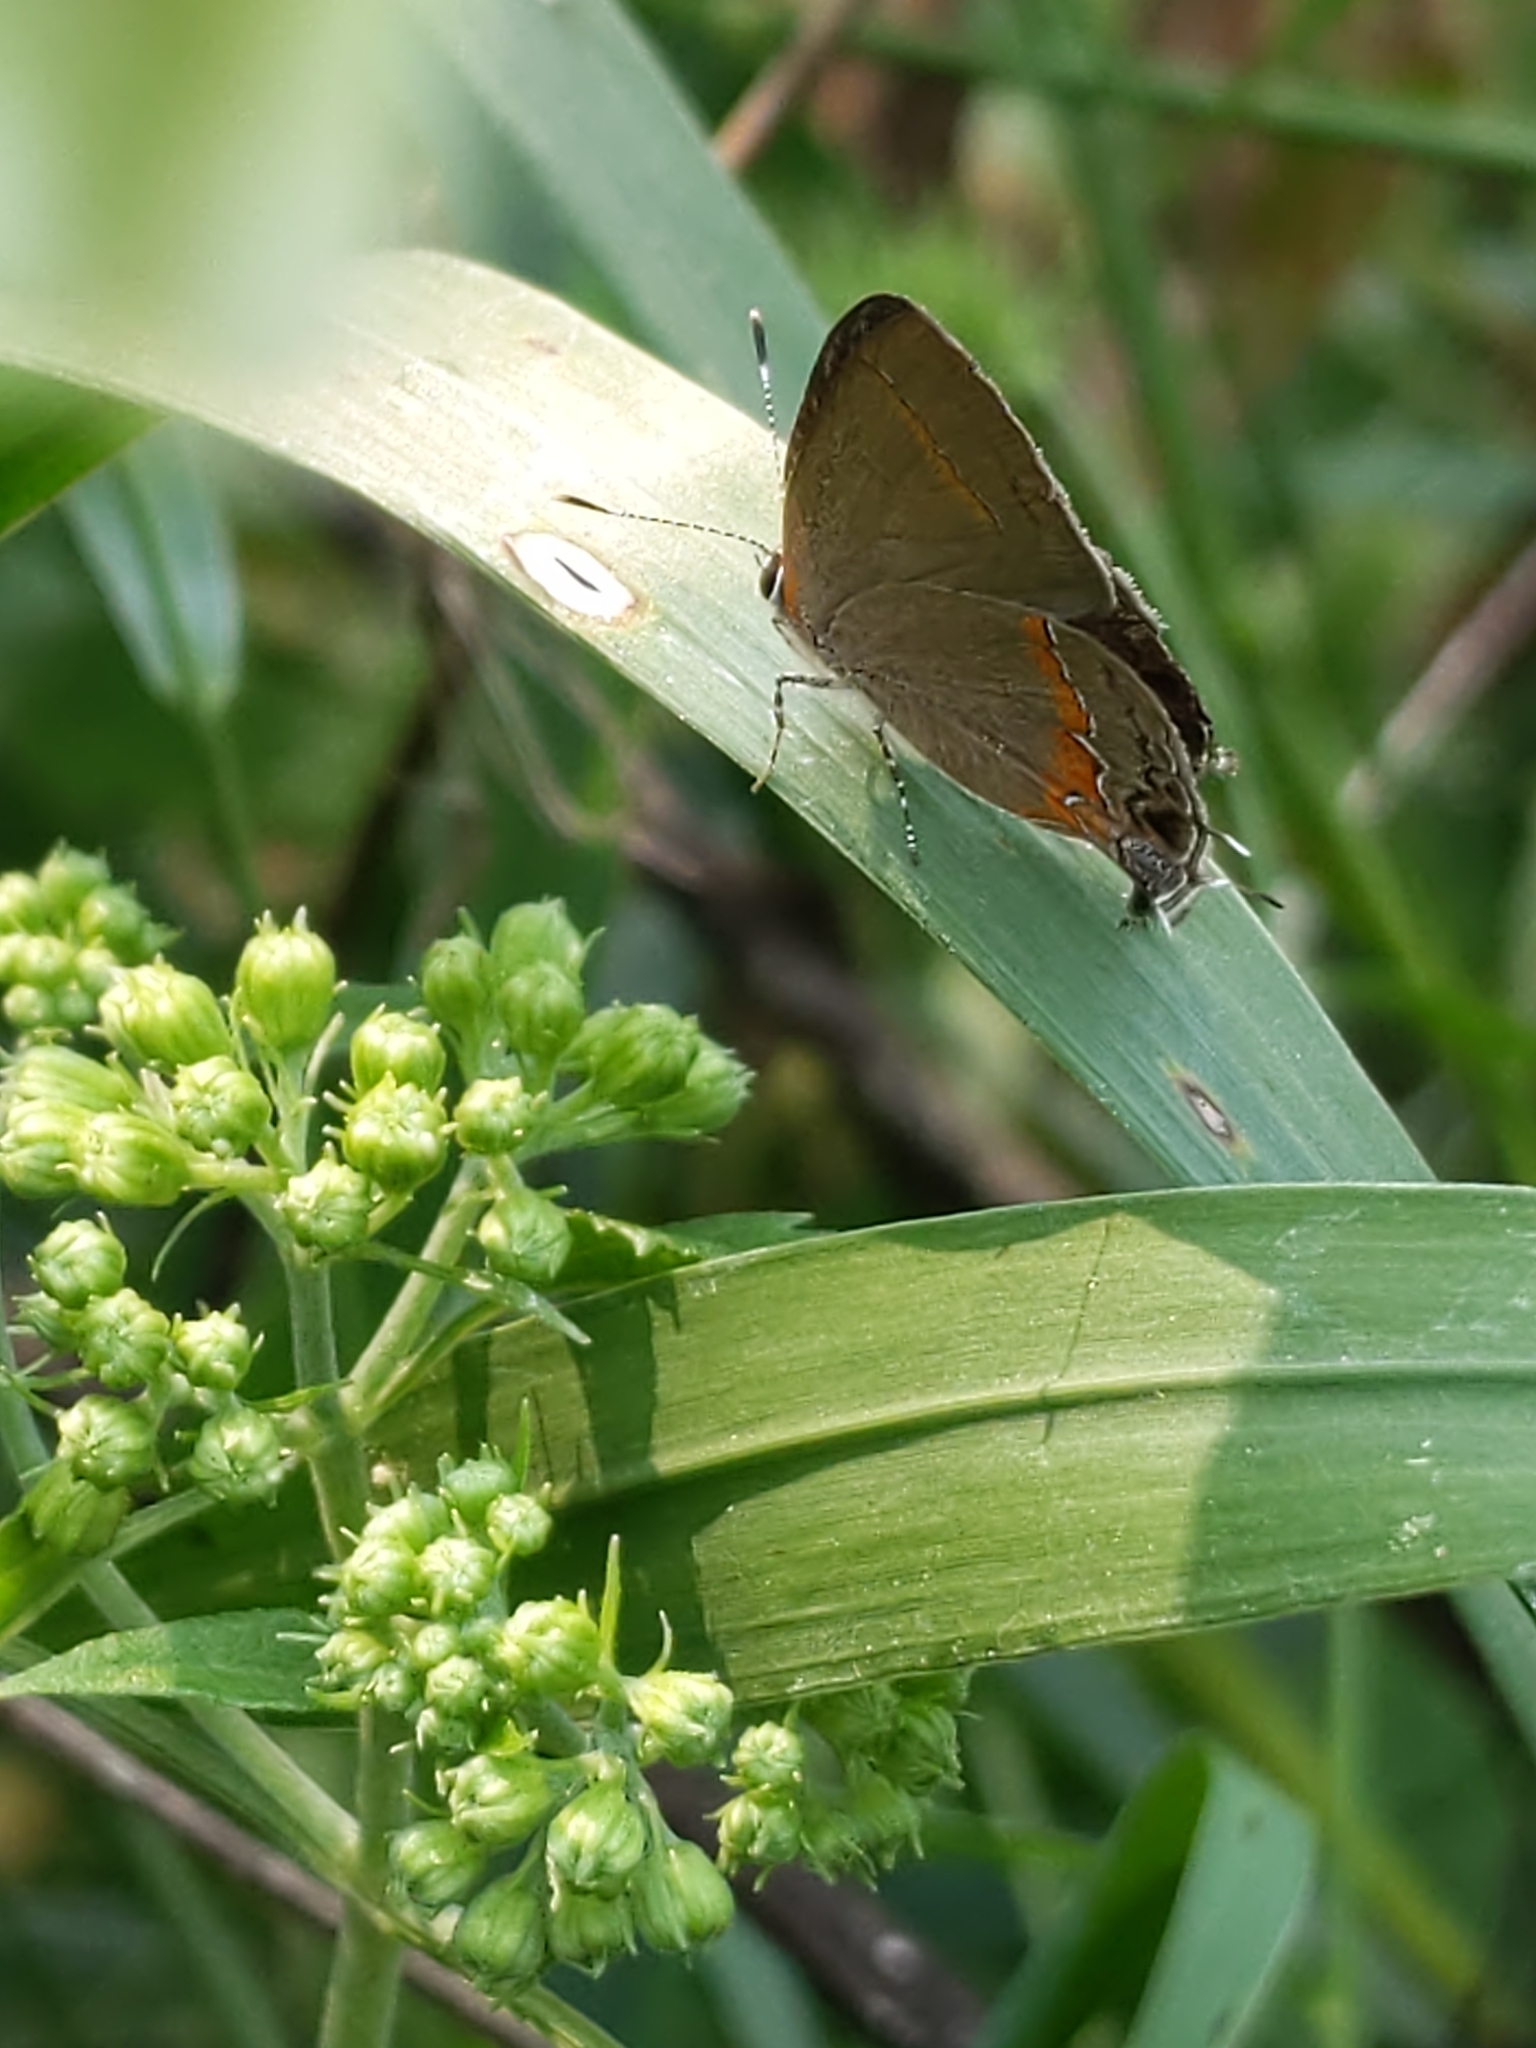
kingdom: Animalia
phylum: Arthropoda
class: Insecta
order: Lepidoptera
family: Lycaenidae
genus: Calycopis
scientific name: Calycopis cecrops
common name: Red-banded hairstreak
